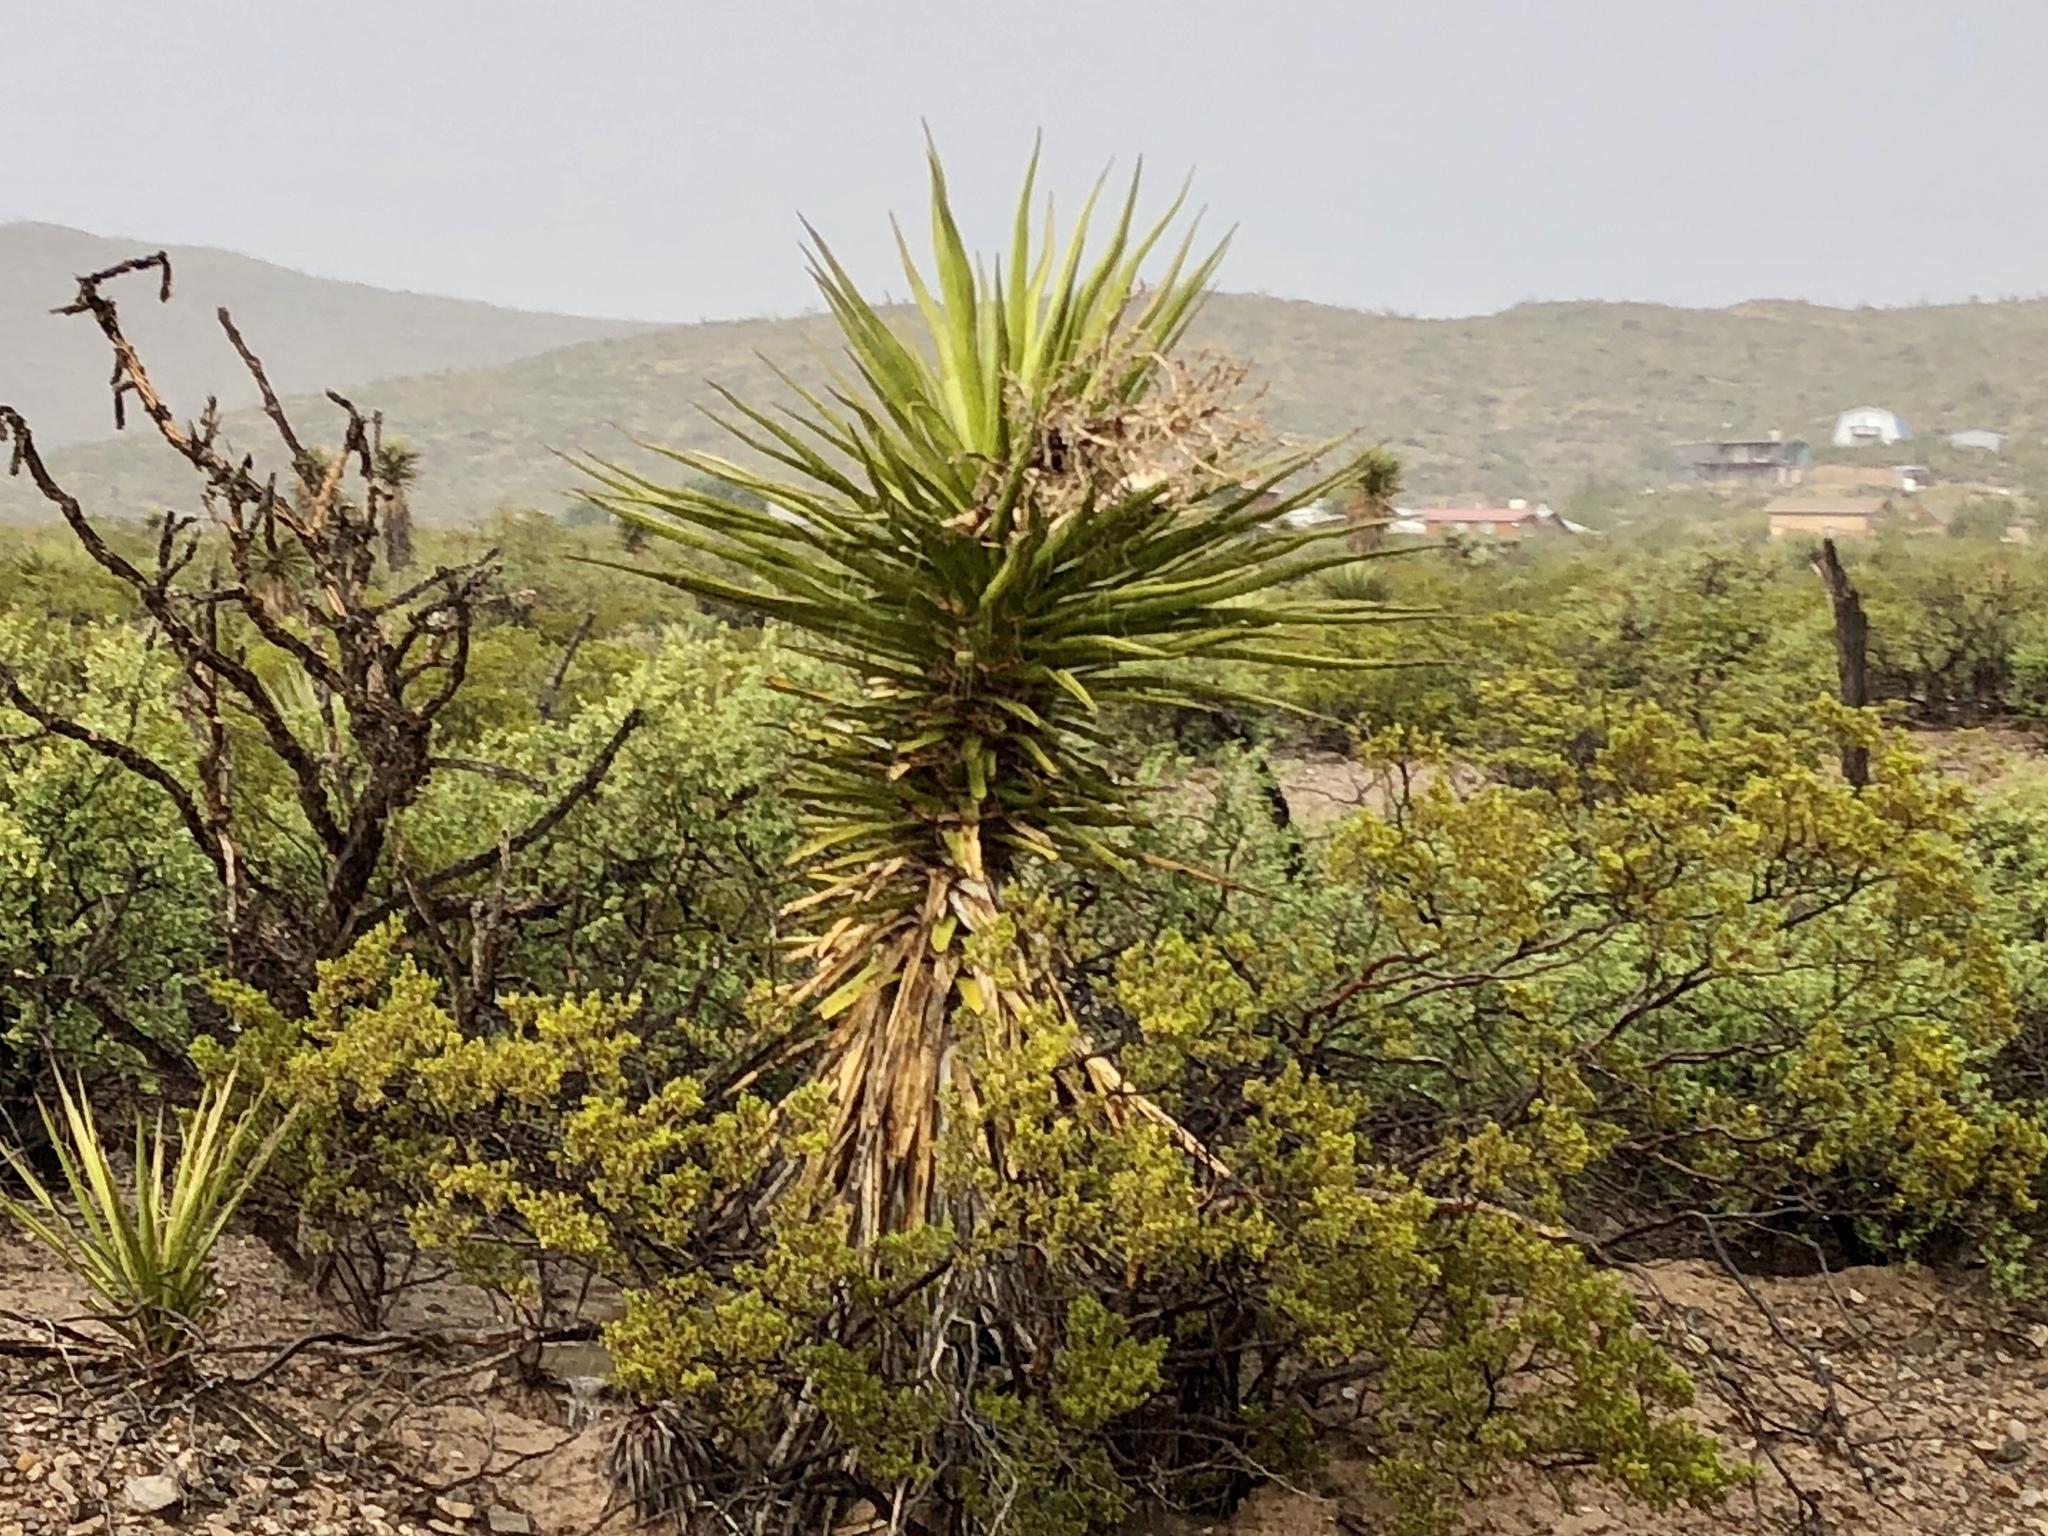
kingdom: Plantae
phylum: Tracheophyta
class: Liliopsida
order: Asparagales
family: Asparagaceae
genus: Yucca
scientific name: Yucca treculiana
